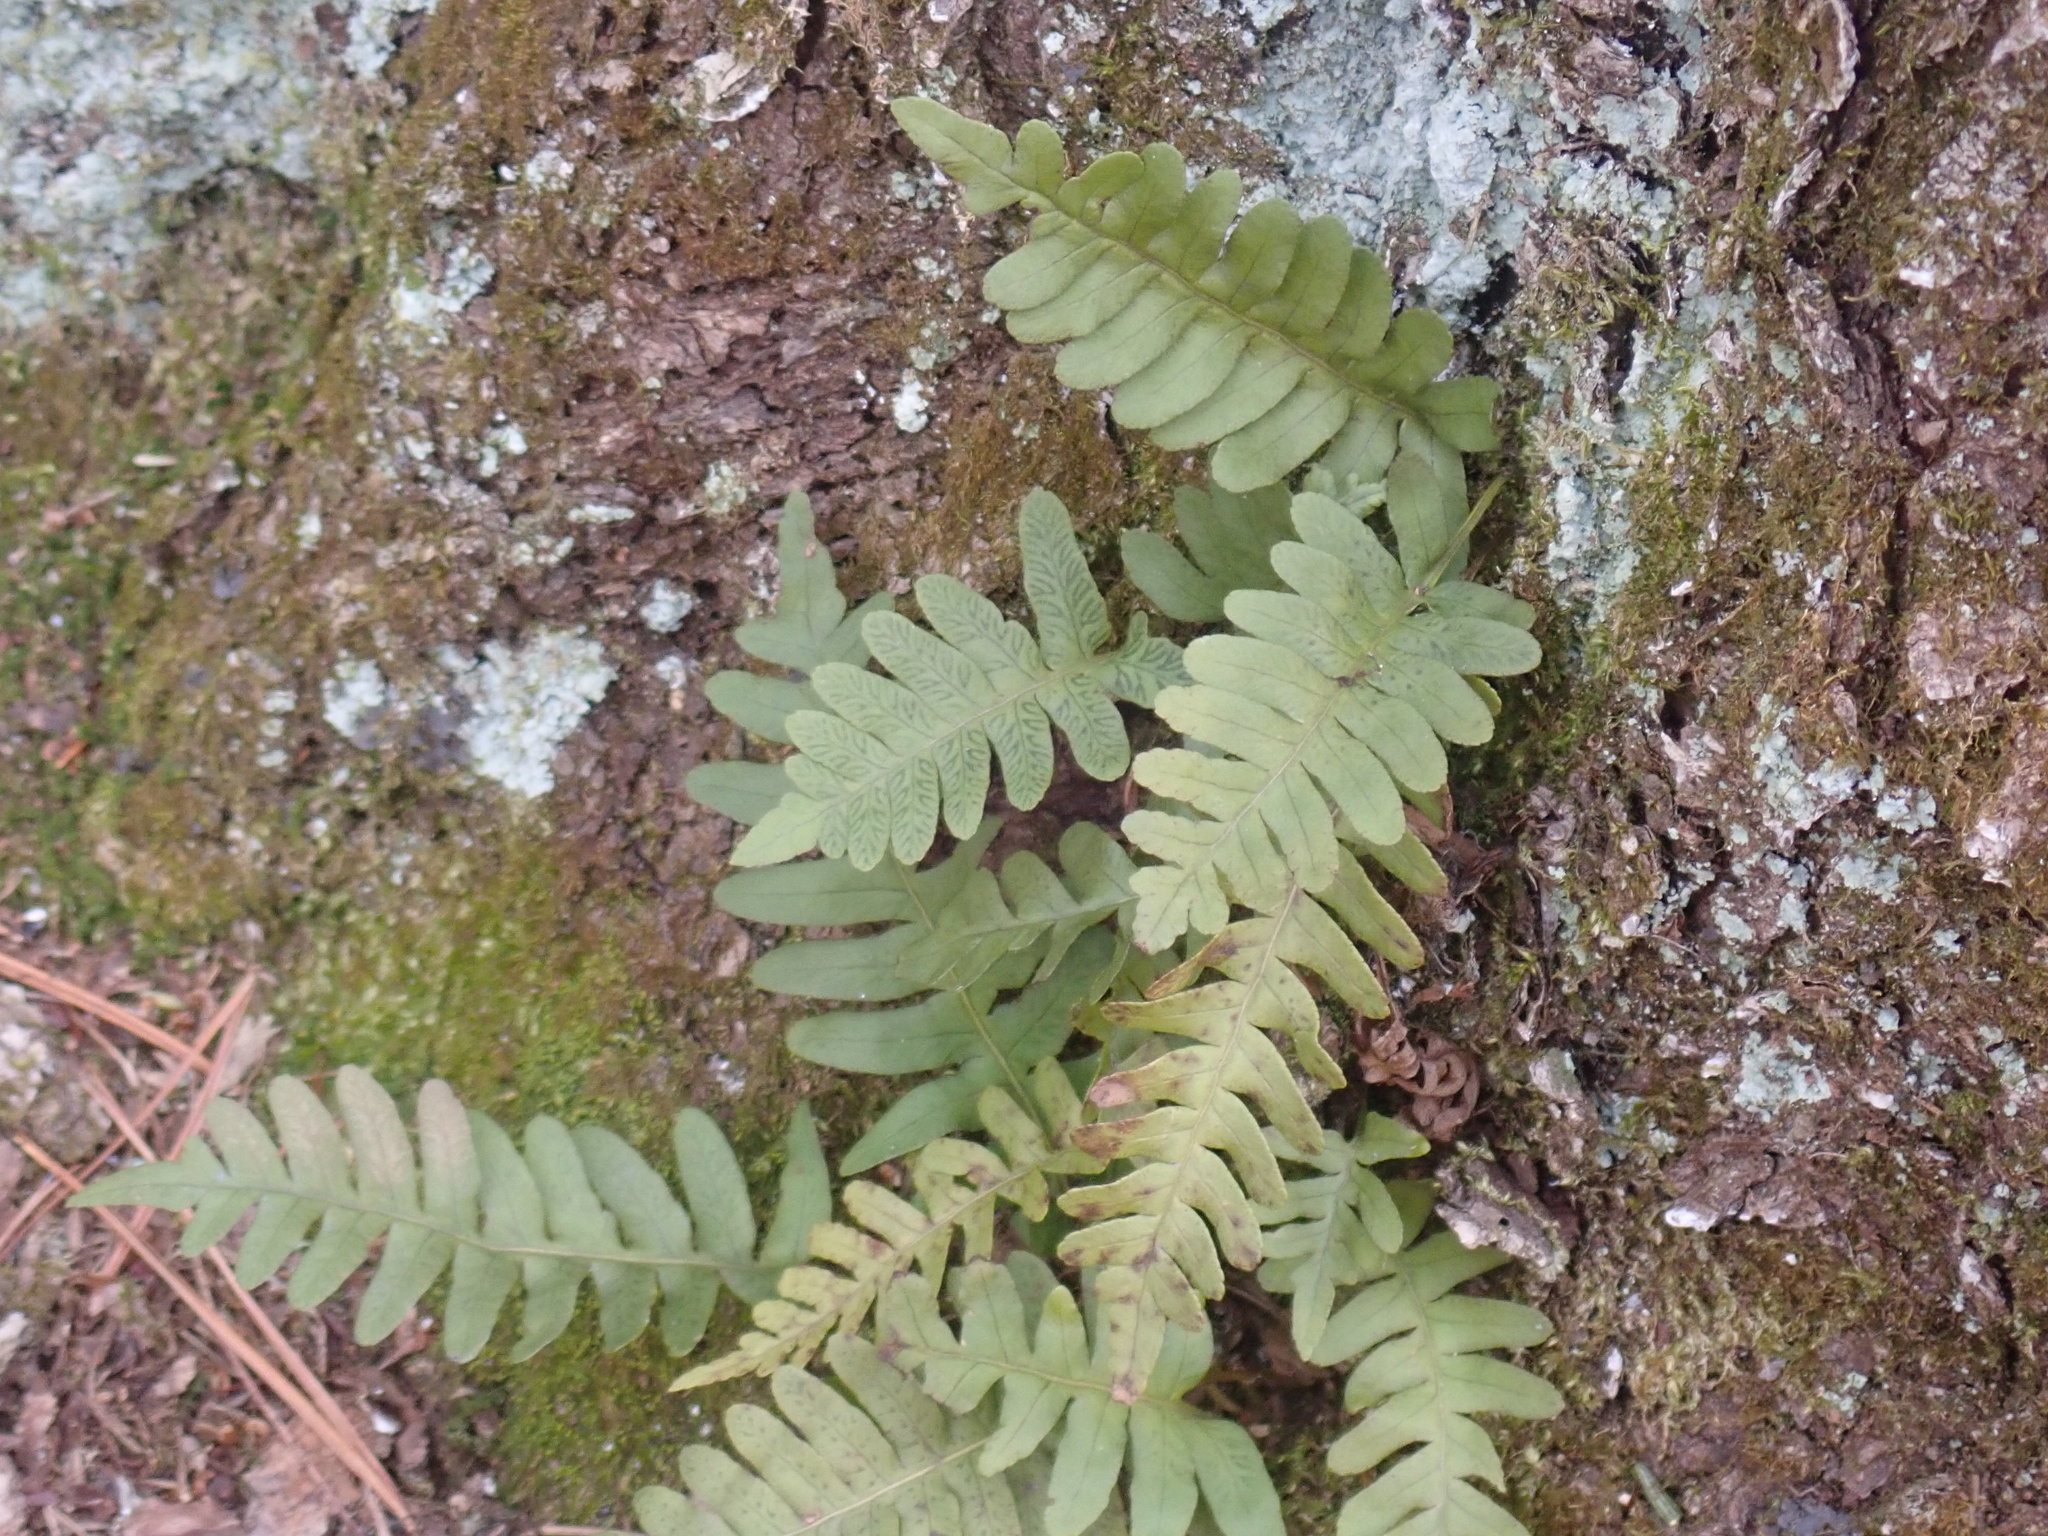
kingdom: Plantae
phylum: Tracheophyta
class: Polypodiopsida
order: Polypodiales
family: Polypodiaceae
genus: Polypodium
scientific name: Polypodium
